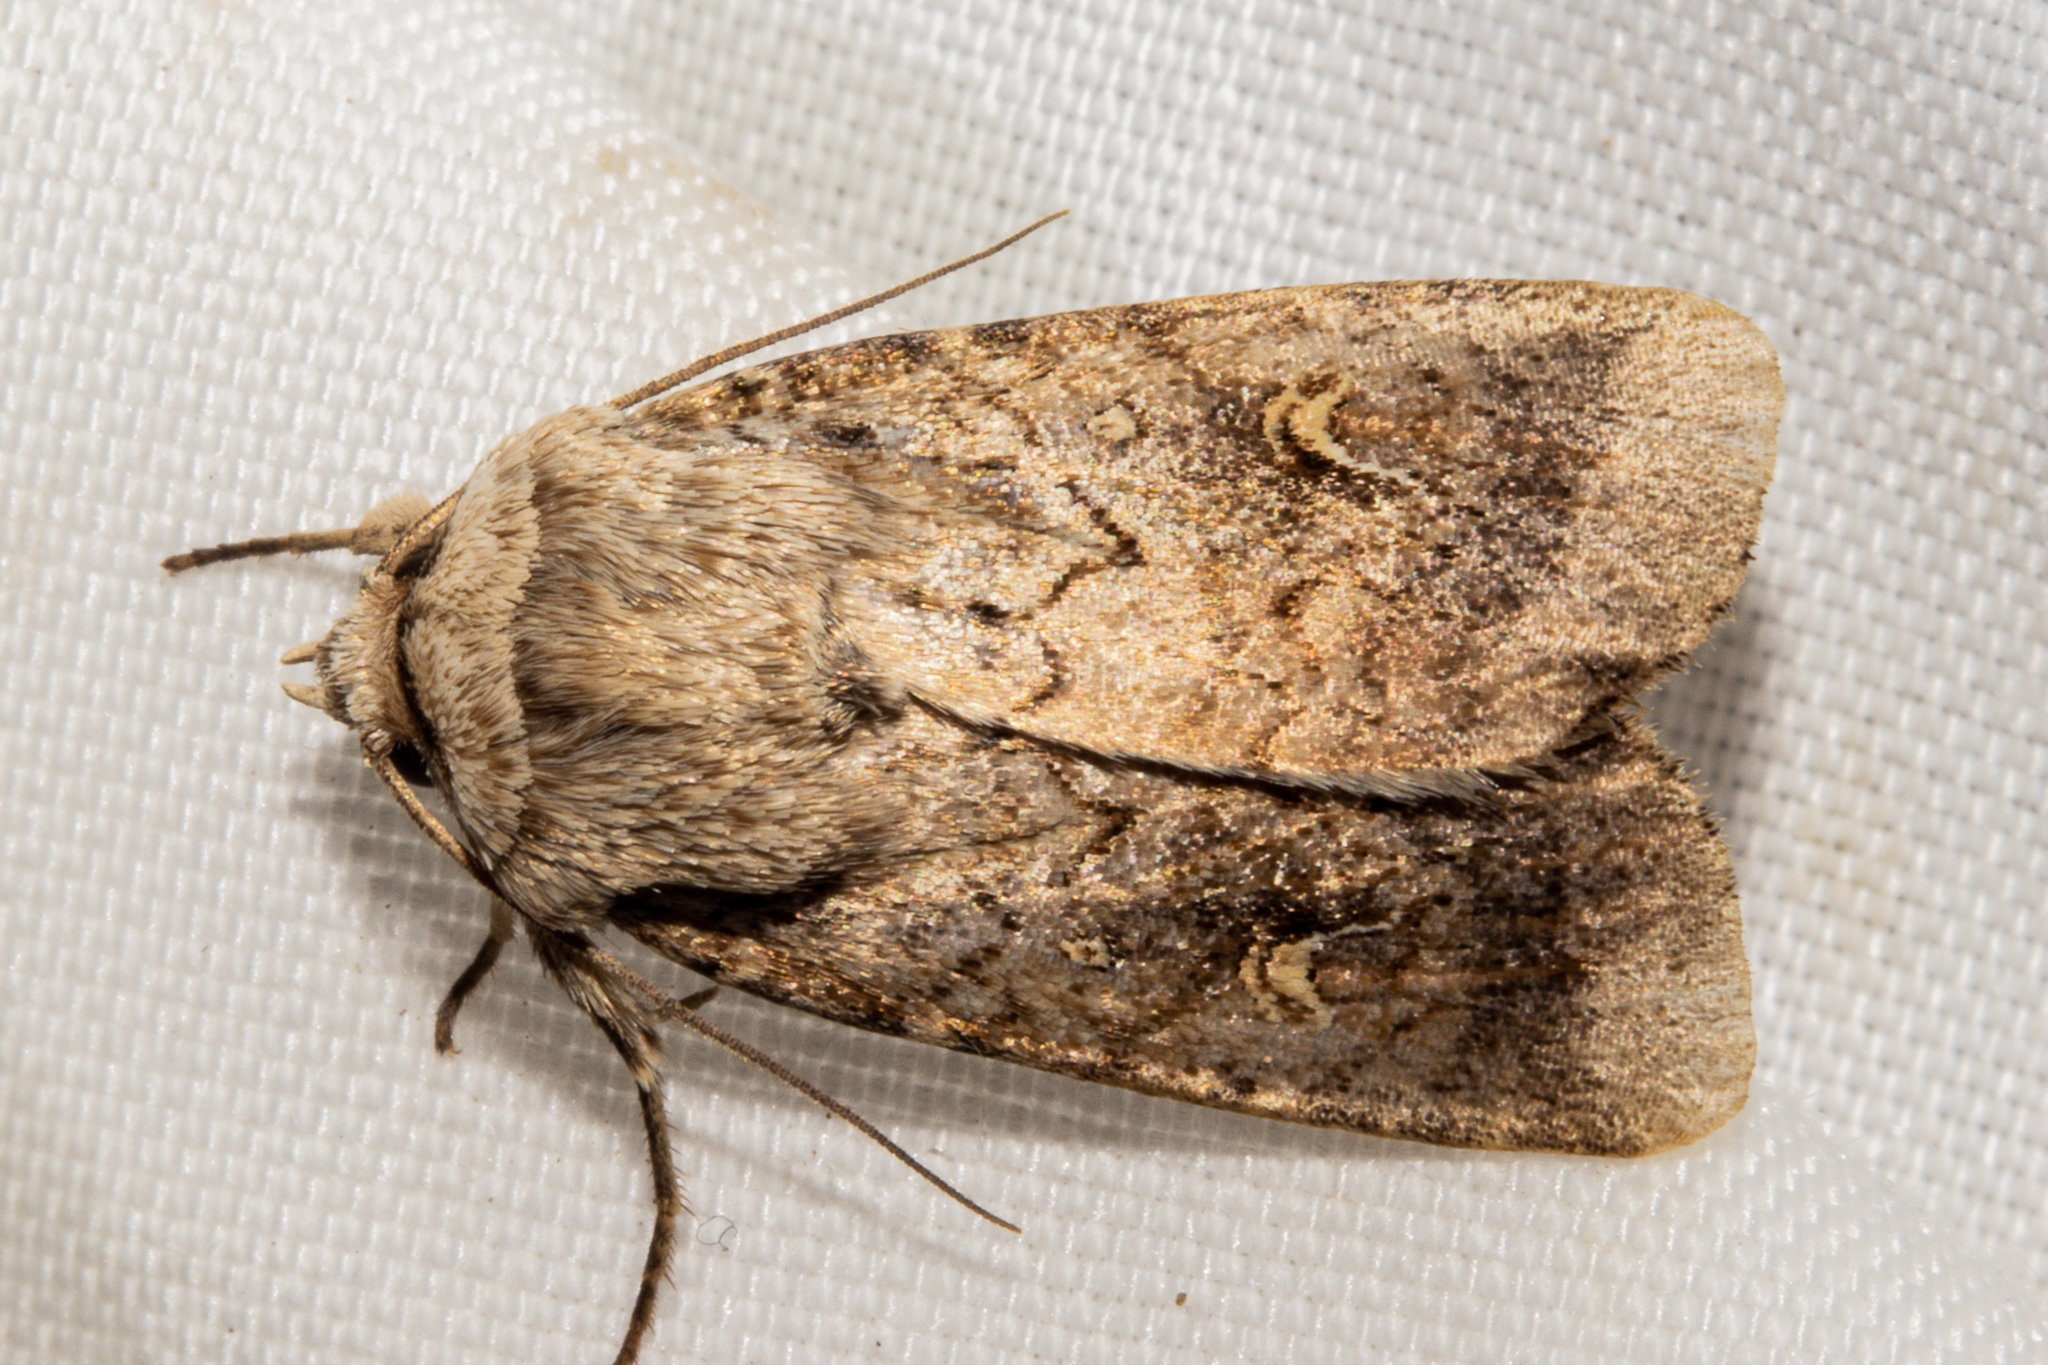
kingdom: Animalia
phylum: Arthropoda
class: Insecta
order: Lepidoptera
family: Noctuidae
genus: Proteuxoa
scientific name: Proteuxoa tetronycha
